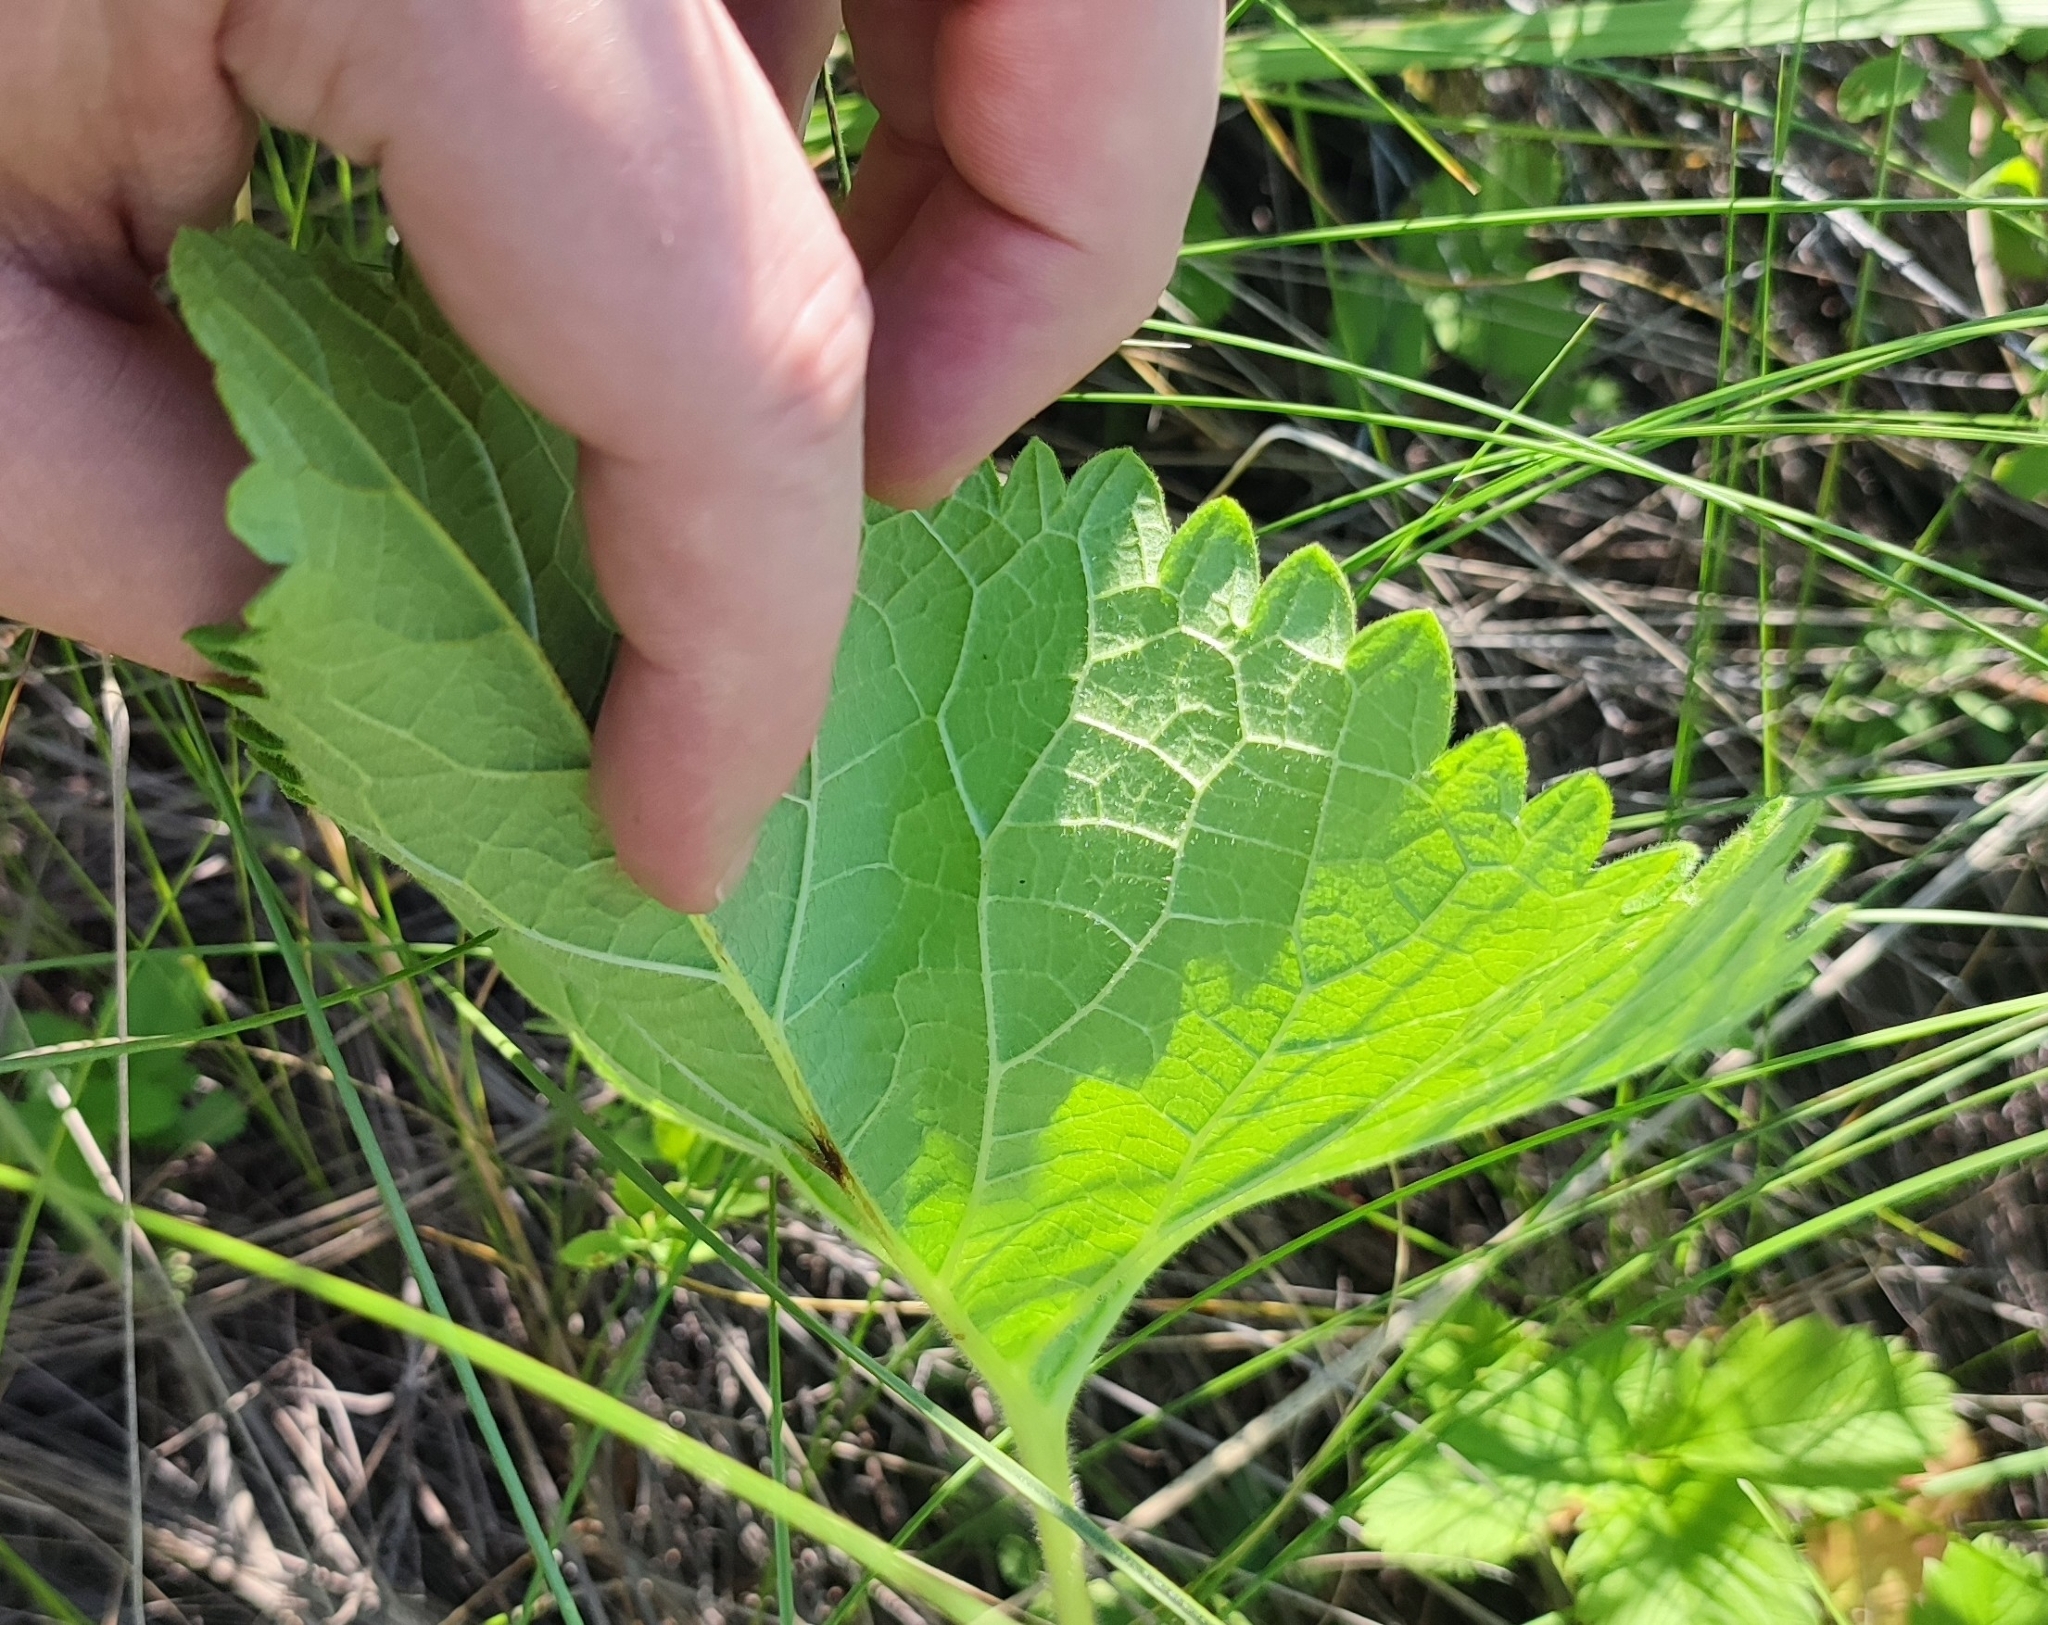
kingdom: Plantae
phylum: Tracheophyta
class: Magnoliopsida
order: Lamiales
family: Lamiaceae
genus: Salvia
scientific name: Salvia dumetorum
